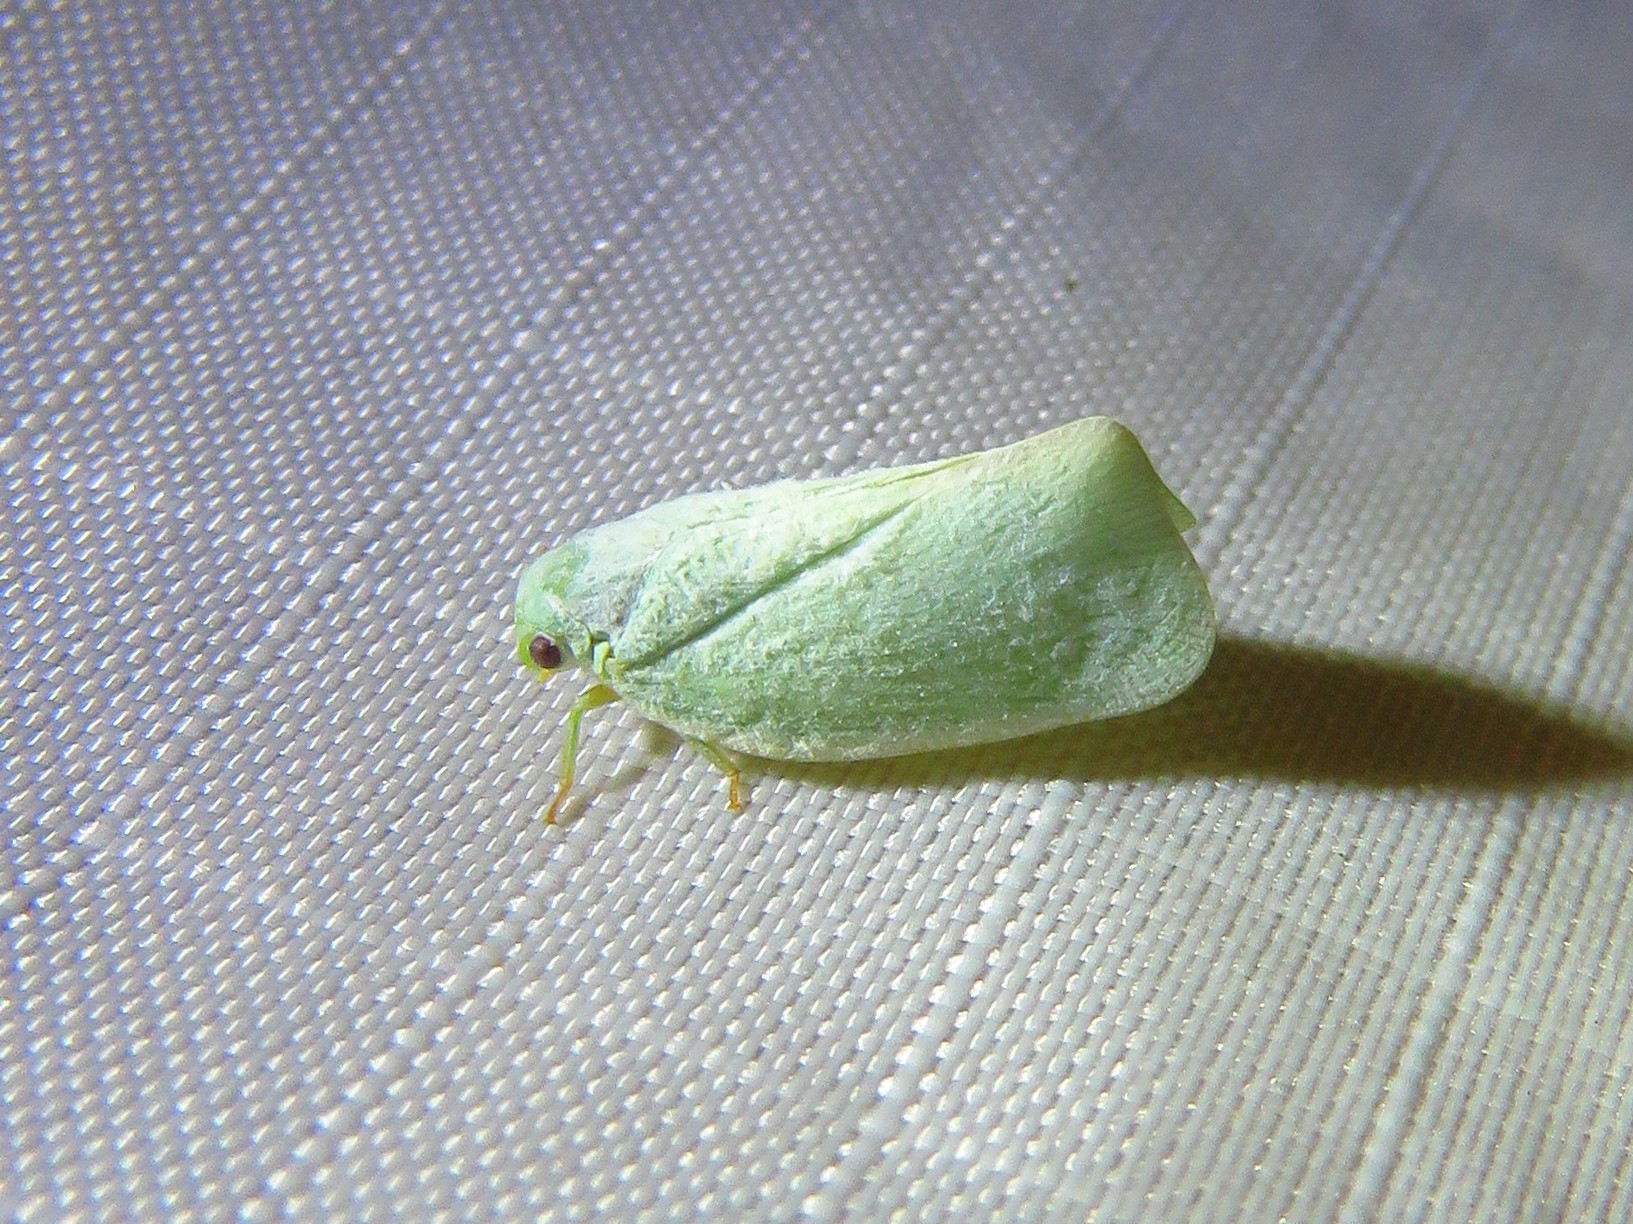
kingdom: Animalia
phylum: Arthropoda
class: Insecta
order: Hemiptera
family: Flatidae
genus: Flatormenis
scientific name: Flatormenis proxima
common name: Northern flatid planthopper
